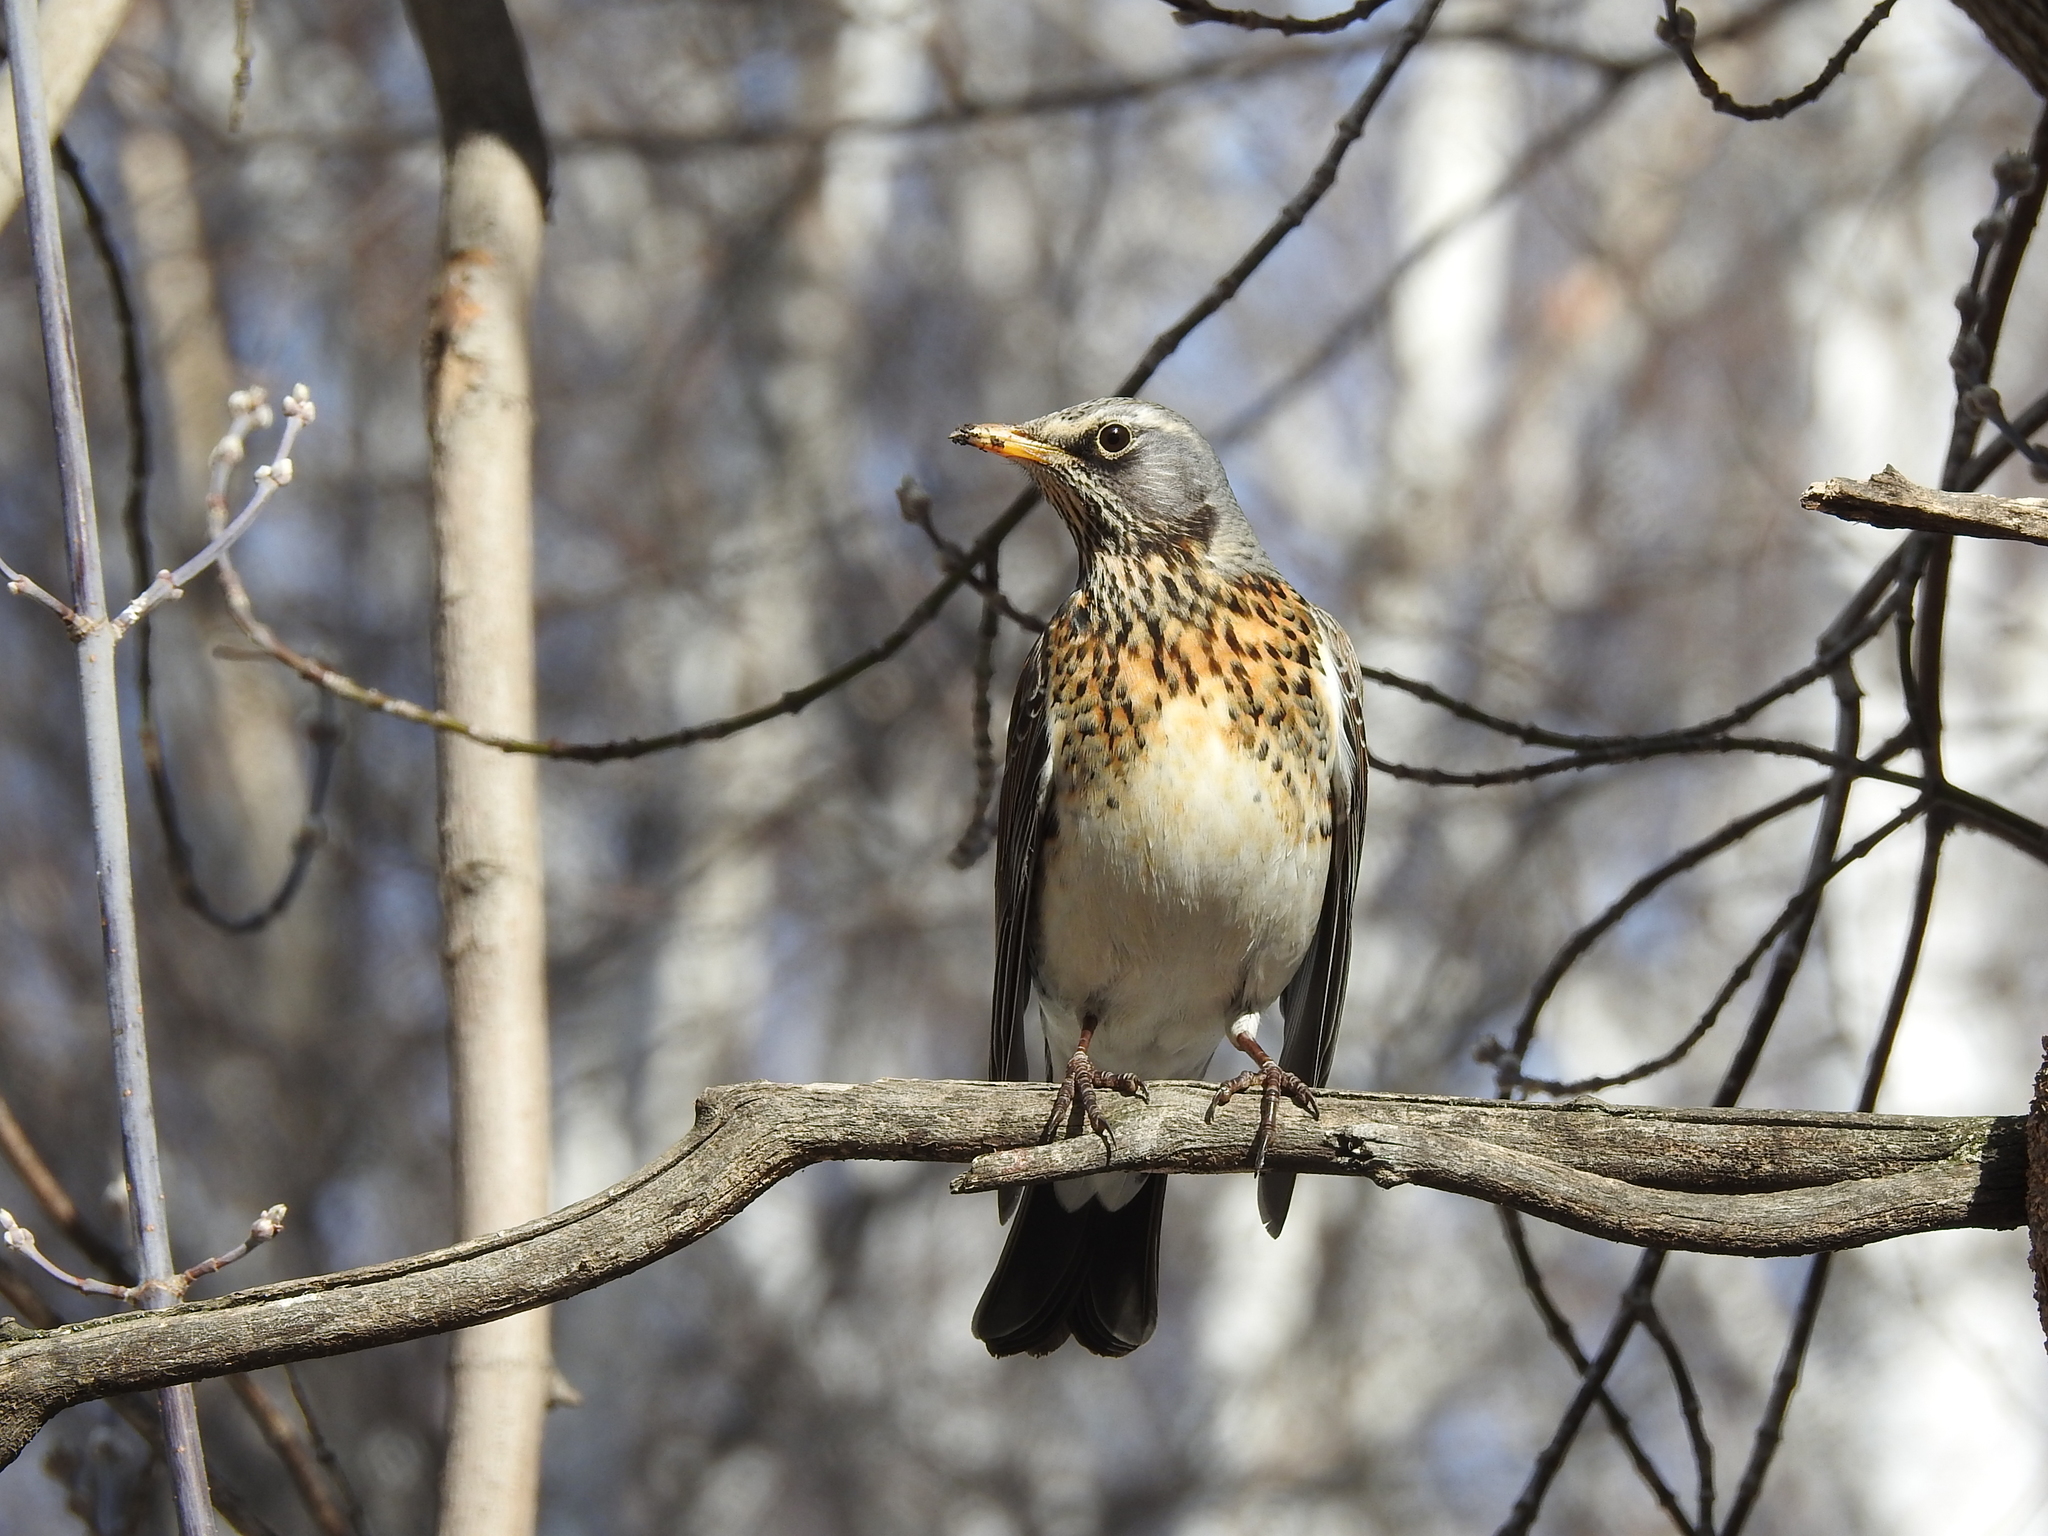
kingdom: Animalia
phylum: Chordata
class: Aves
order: Passeriformes
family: Turdidae
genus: Turdus
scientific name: Turdus pilaris
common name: Fieldfare
